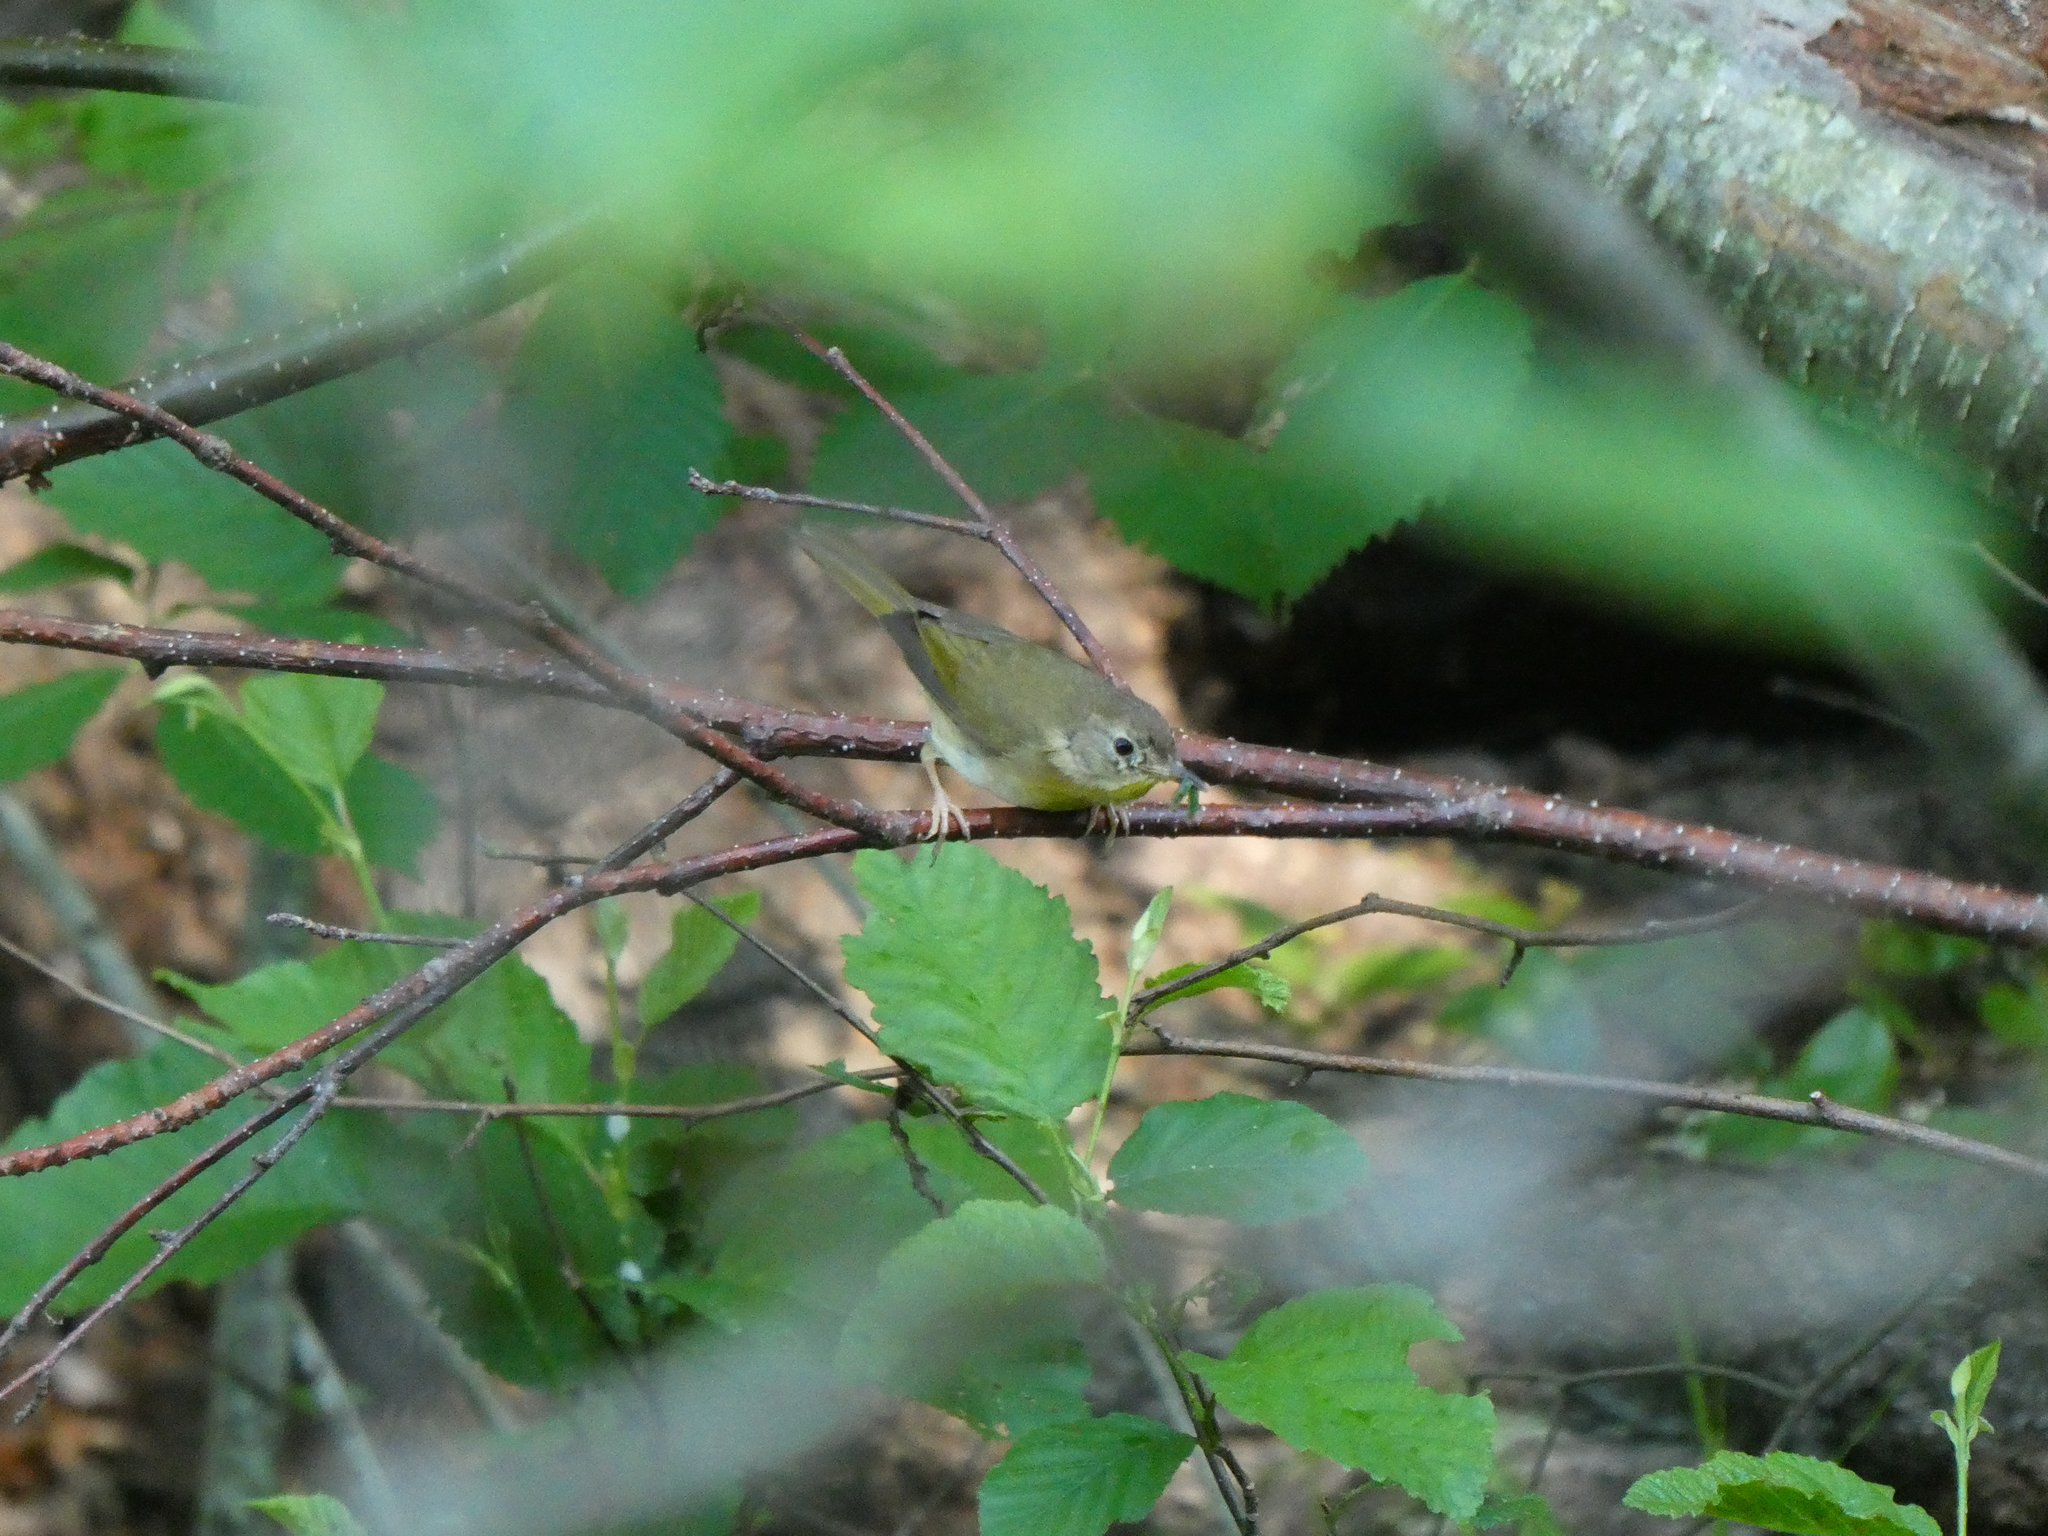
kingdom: Animalia
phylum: Chordata
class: Aves
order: Passeriformes
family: Parulidae
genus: Geothlypis
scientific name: Geothlypis trichas
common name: Common yellowthroat
